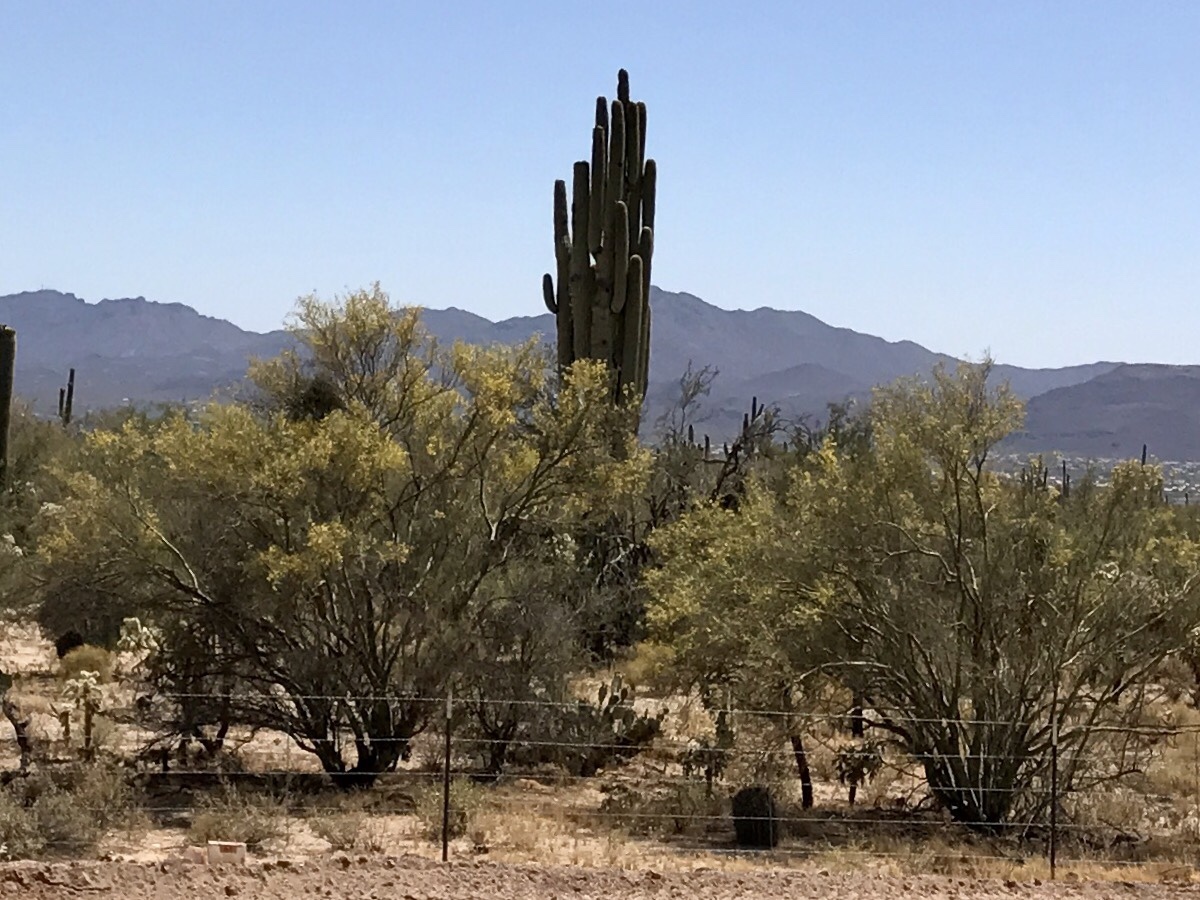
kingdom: Plantae
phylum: Tracheophyta
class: Magnoliopsida
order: Fabales
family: Fabaceae
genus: Parkinsonia
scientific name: Parkinsonia microphylla
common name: Yellow paloverde
